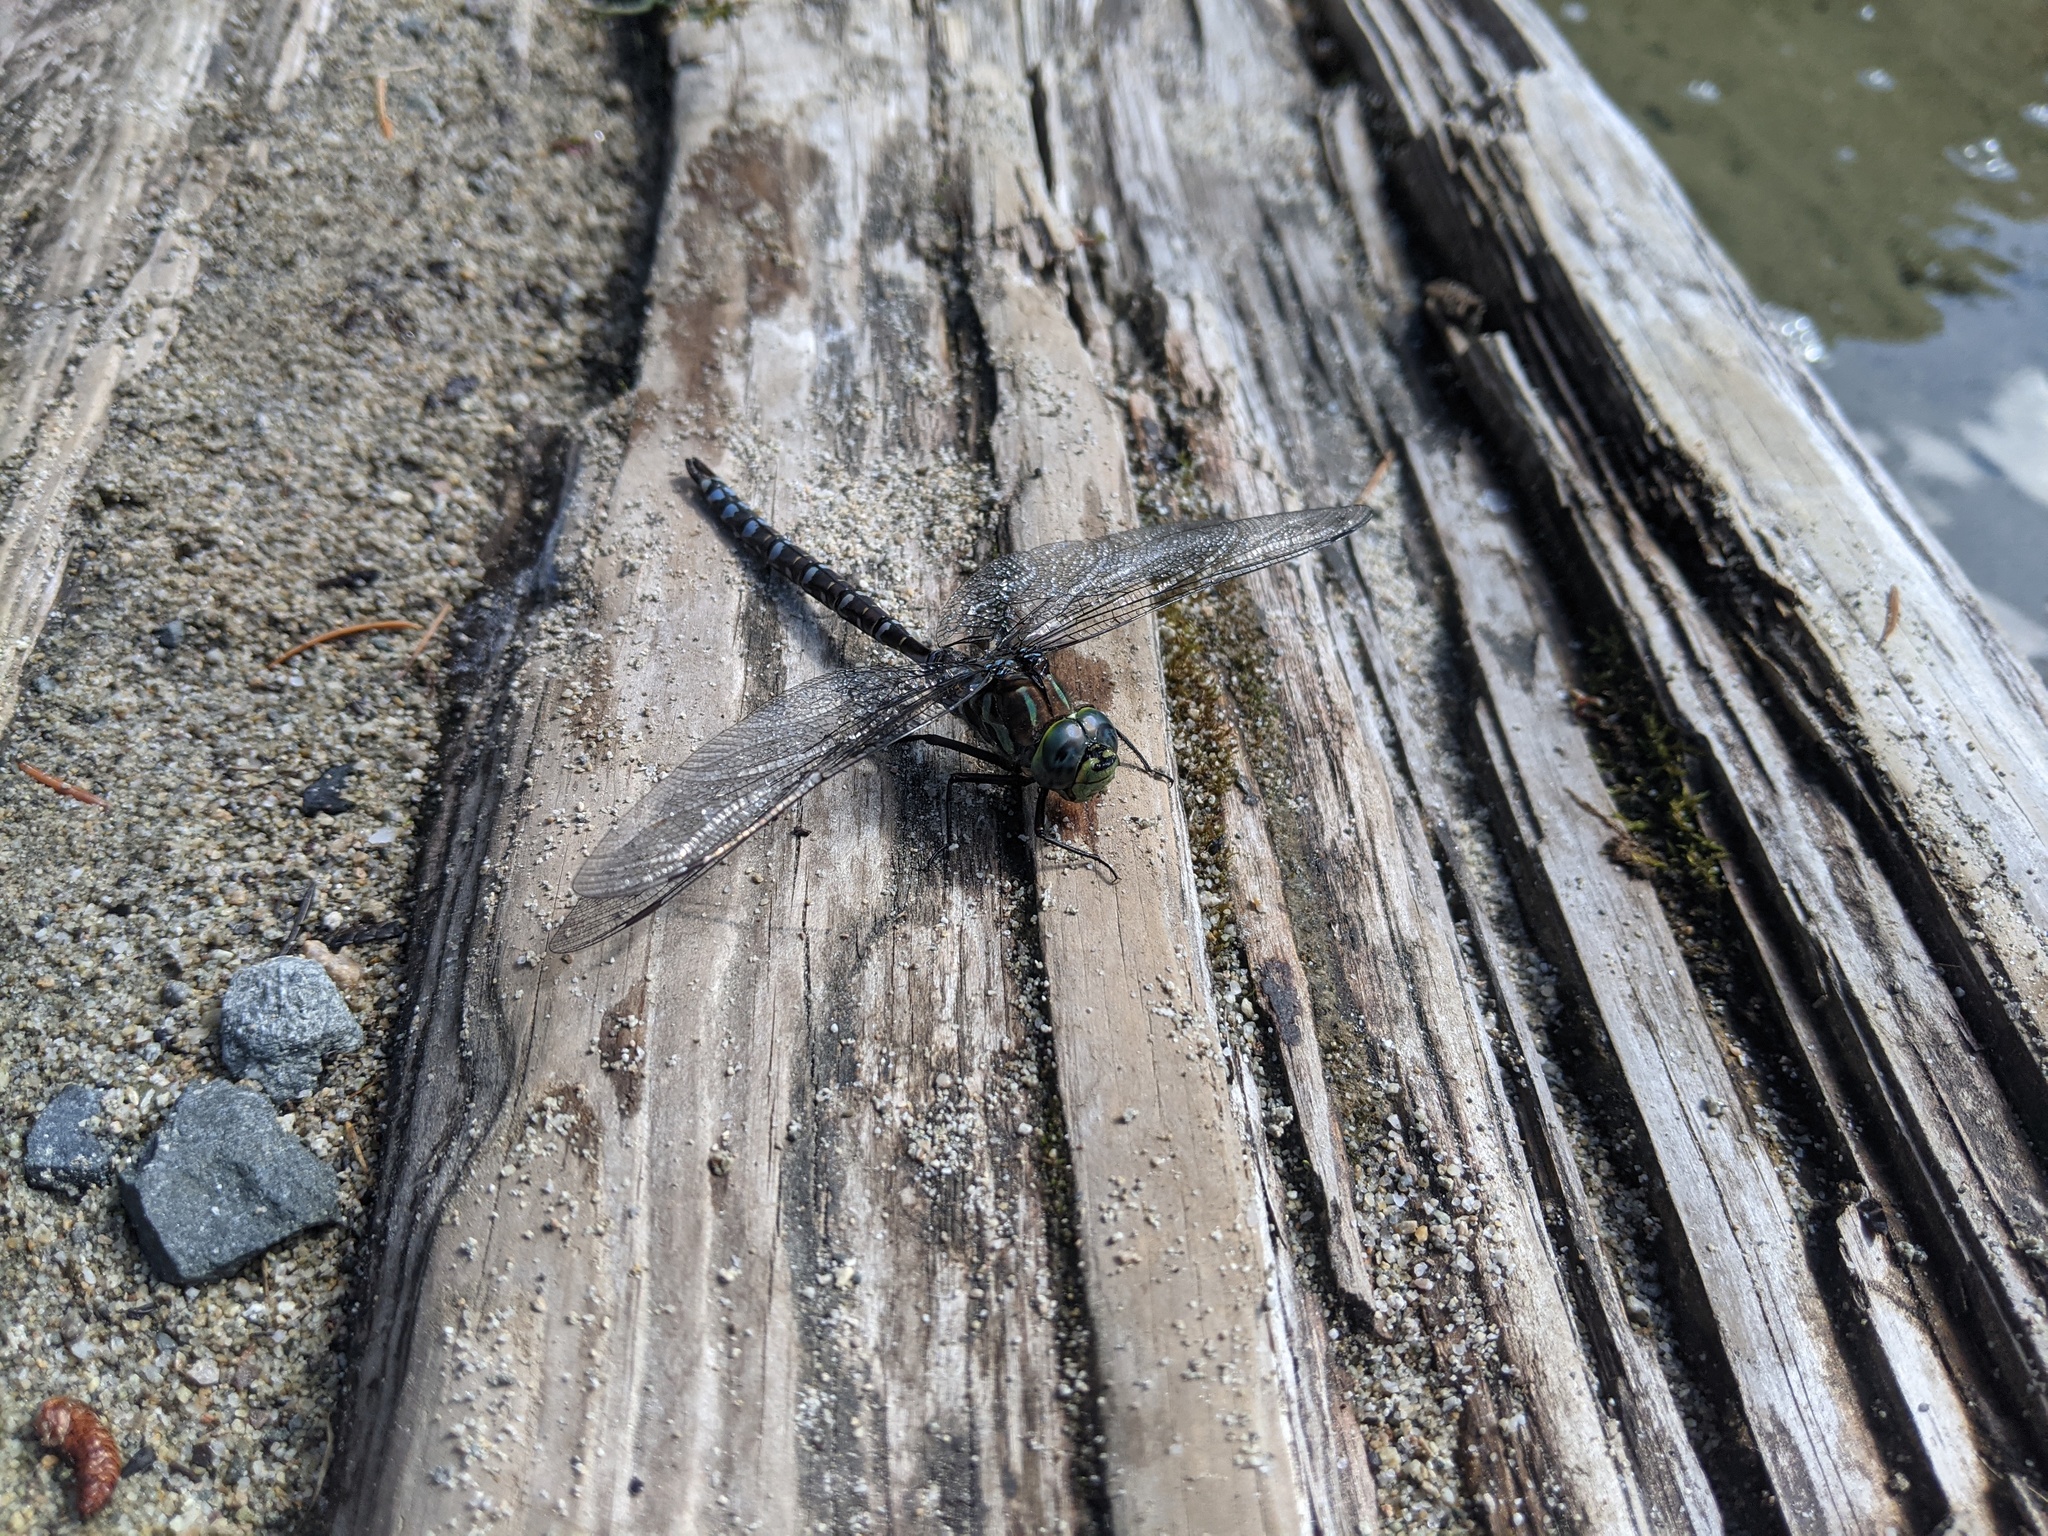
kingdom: Animalia
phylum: Arthropoda
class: Insecta
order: Odonata
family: Aeshnidae
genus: Aeshna
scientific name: Aeshna eremita
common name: Lake darner
